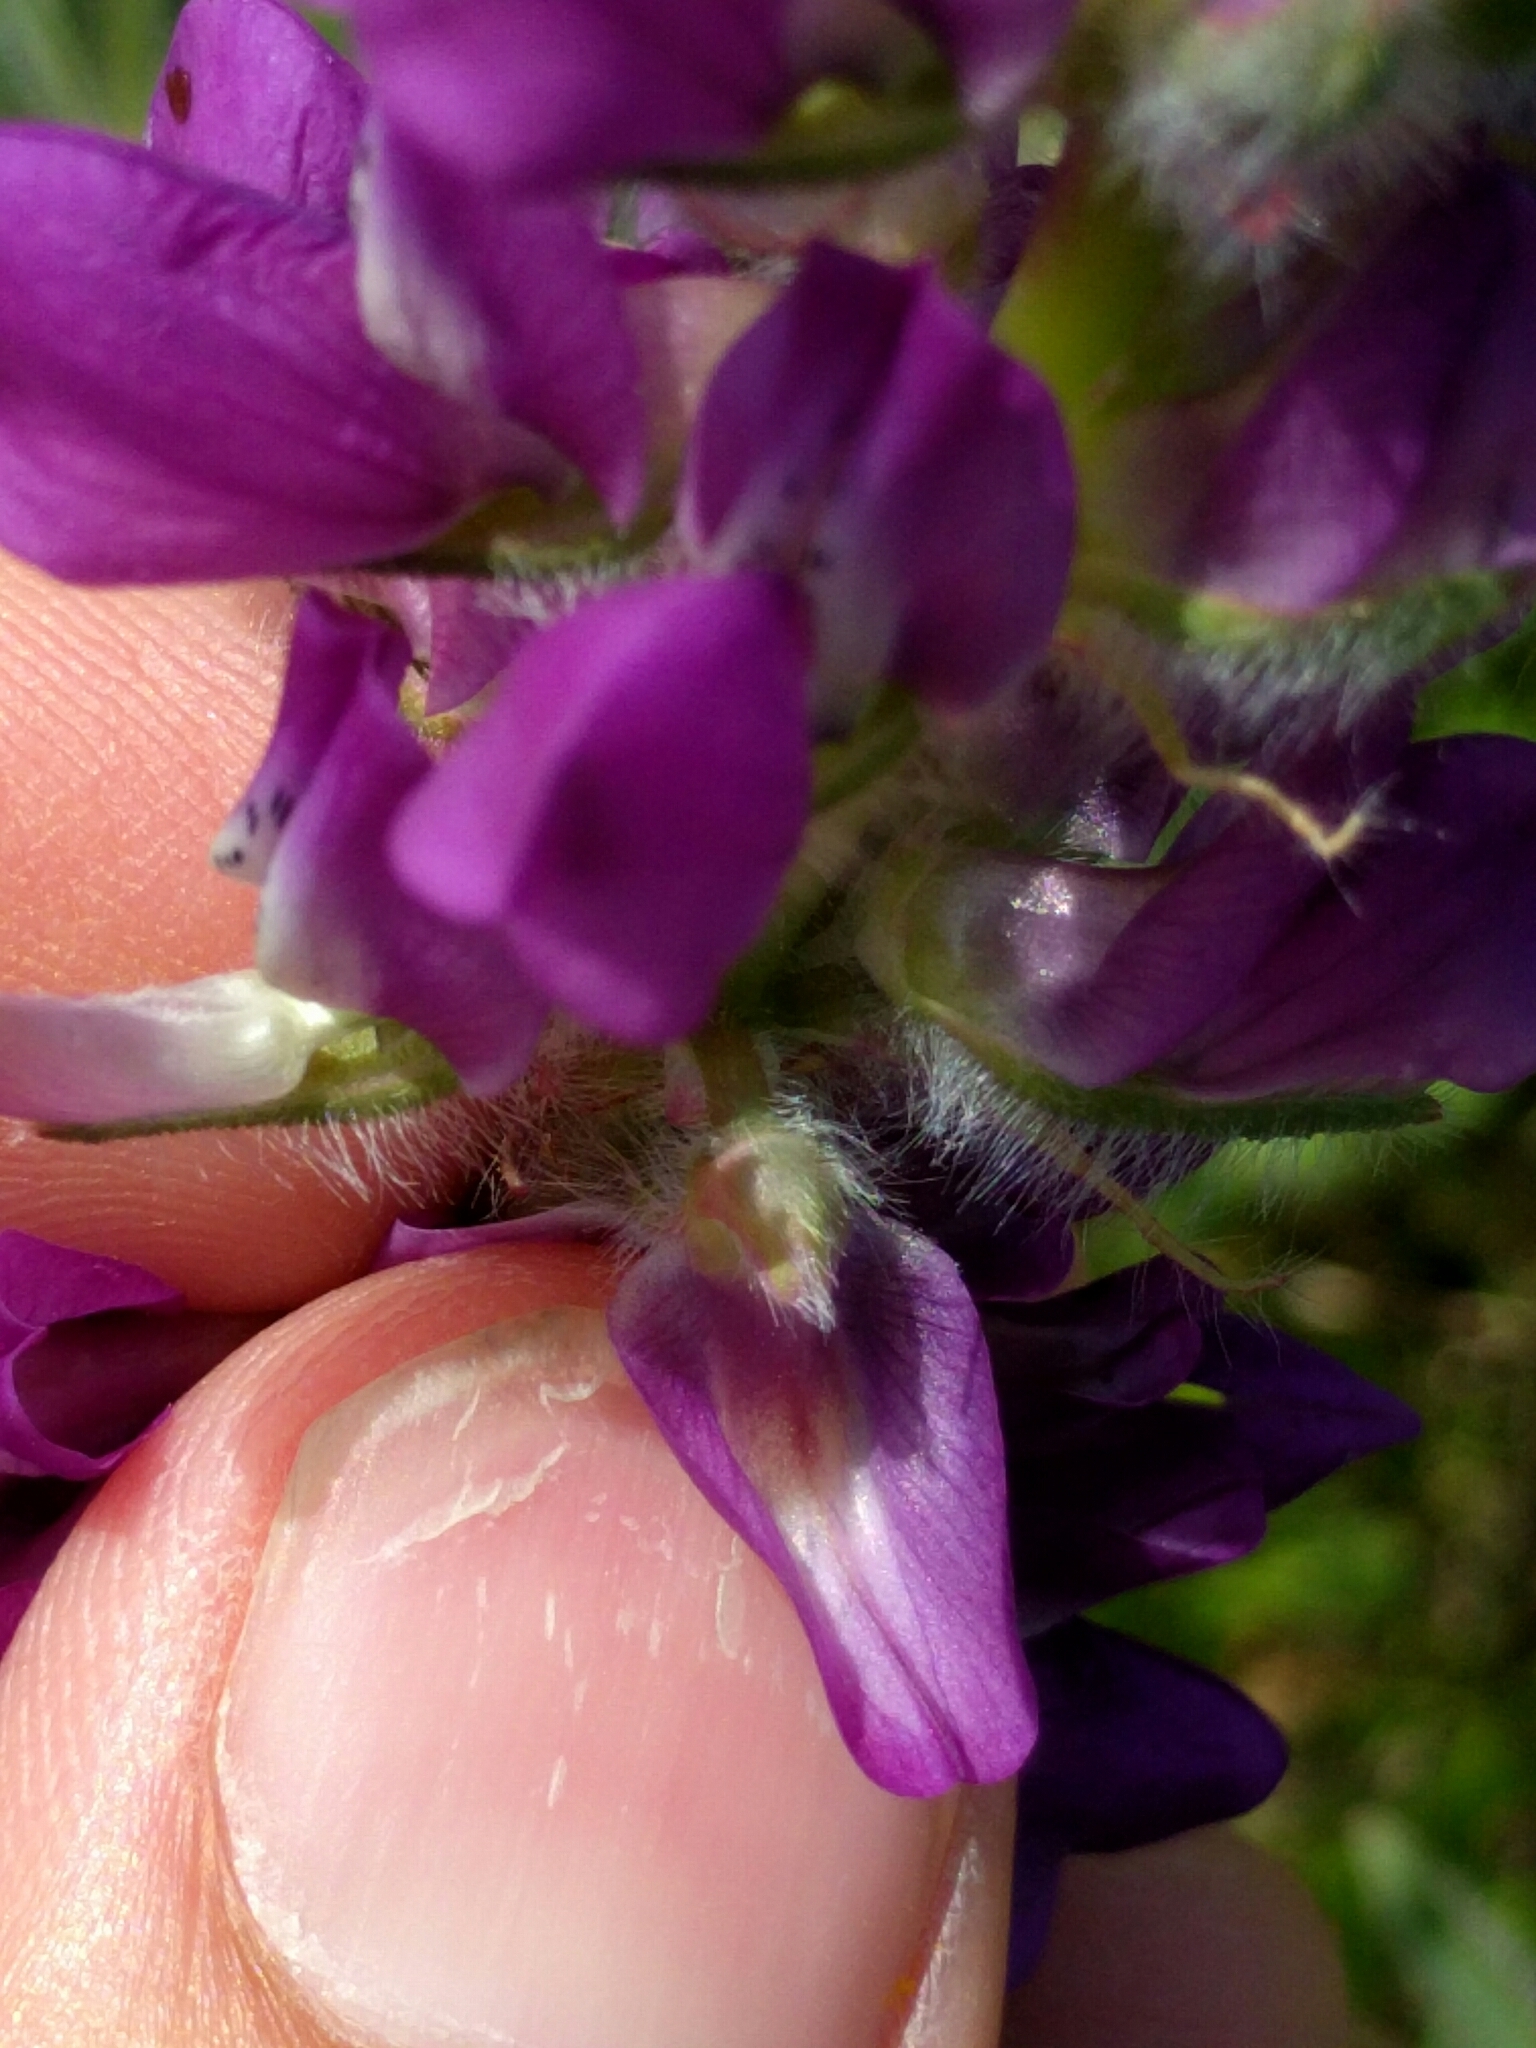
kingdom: Plantae
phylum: Tracheophyta
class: Magnoliopsida
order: Fabales
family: Fabaceae
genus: Lupinus
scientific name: Lupinus microcarpus
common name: Chick lupine
